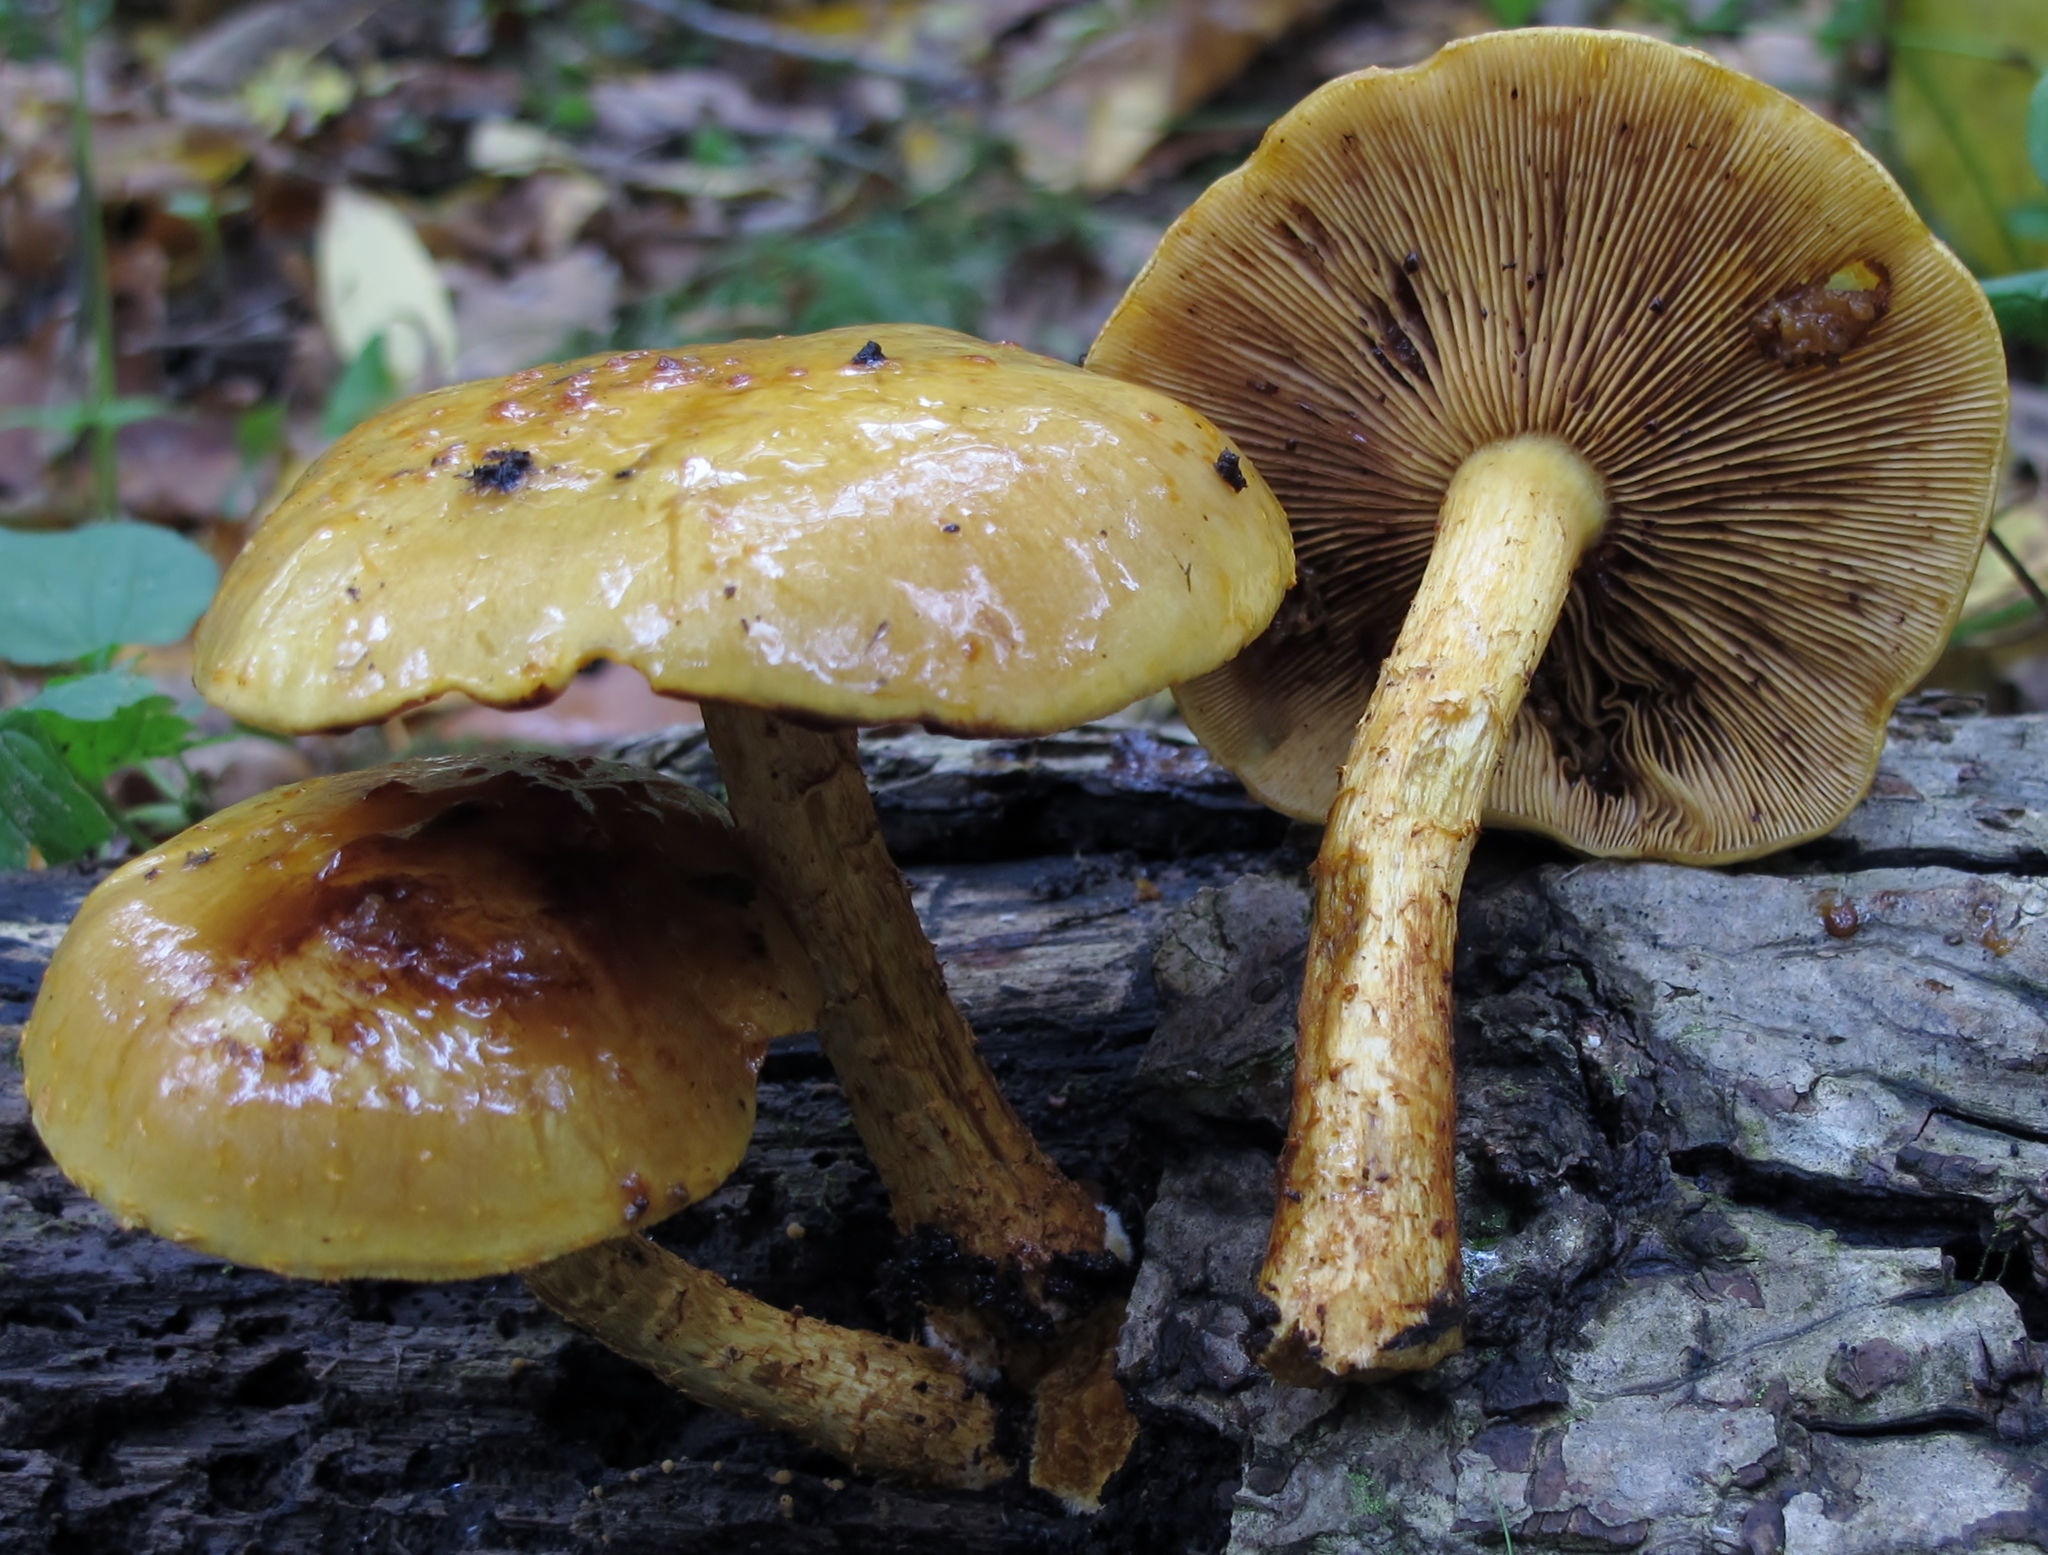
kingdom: Fungi
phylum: Basidiomycota
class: Agaricomycetes
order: Agaricales
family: Strophariaceae
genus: Pholiota
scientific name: Pholiota aurivella
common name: Golden scalycap
